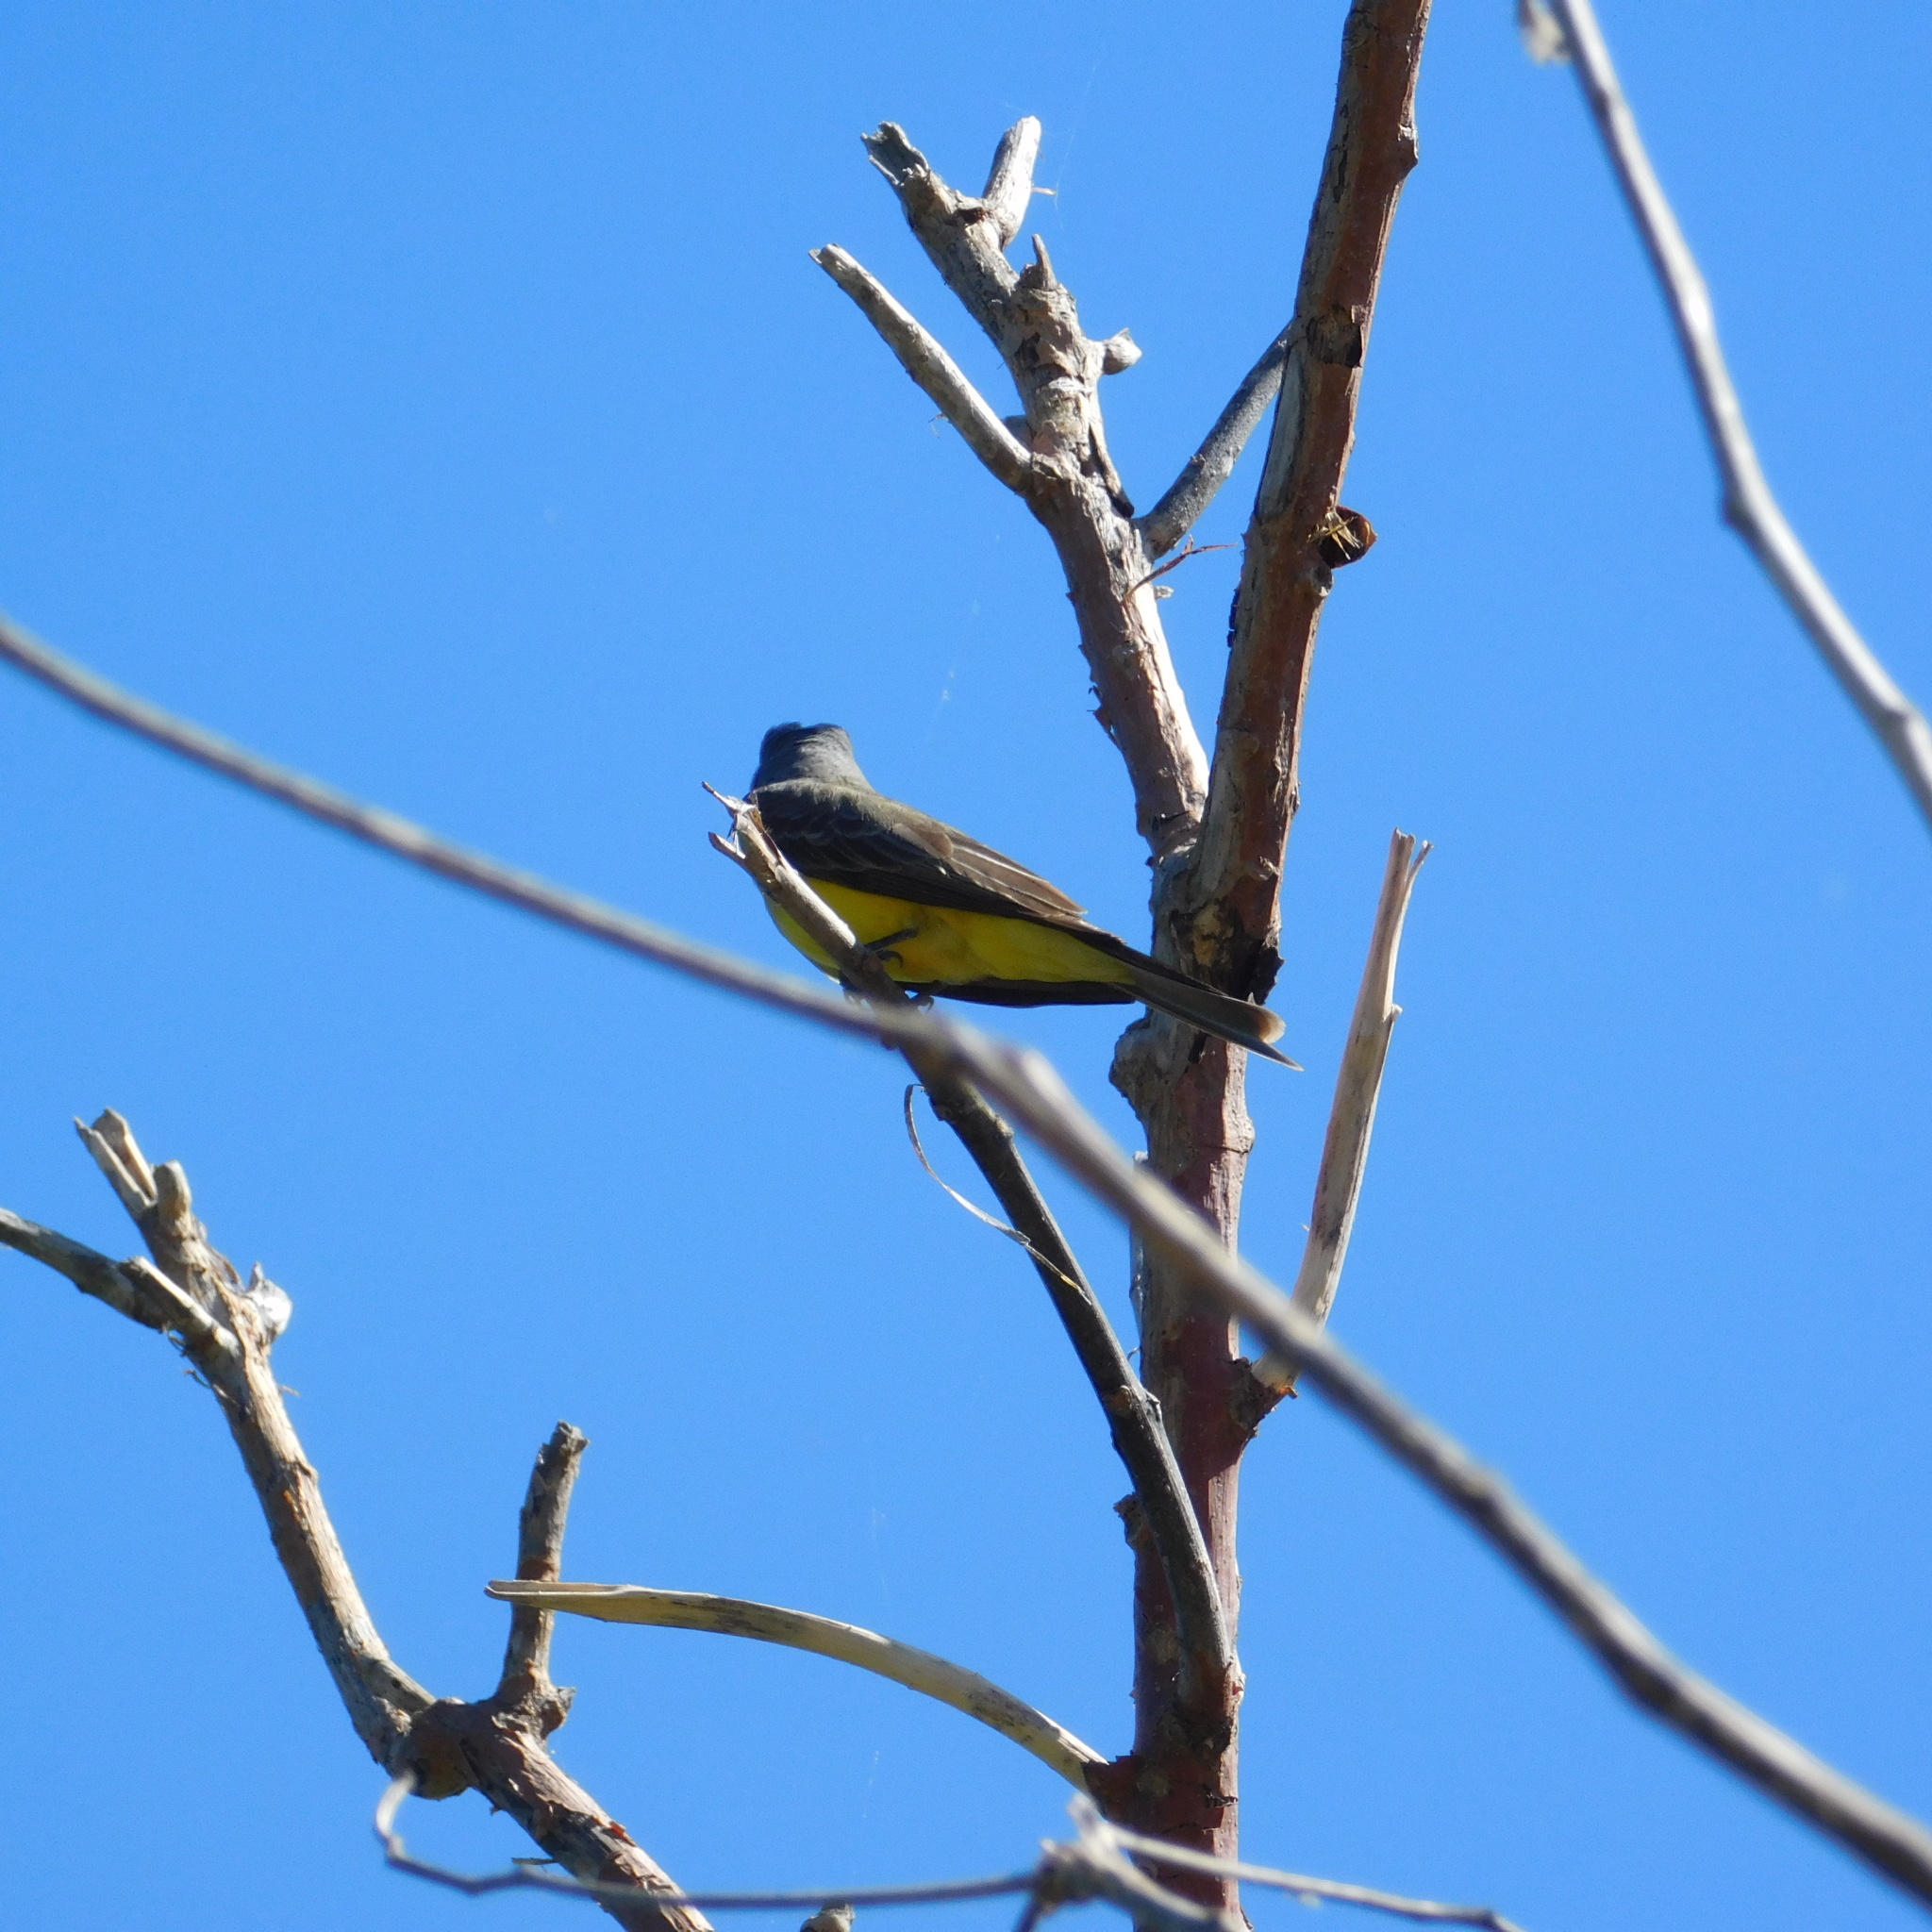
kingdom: Animalia
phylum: Chordata
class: Aves
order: Passeriformes
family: Tyrannidae
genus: Tyrannus
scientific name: Tyrannus melancholicus
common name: Tropical kingbird
